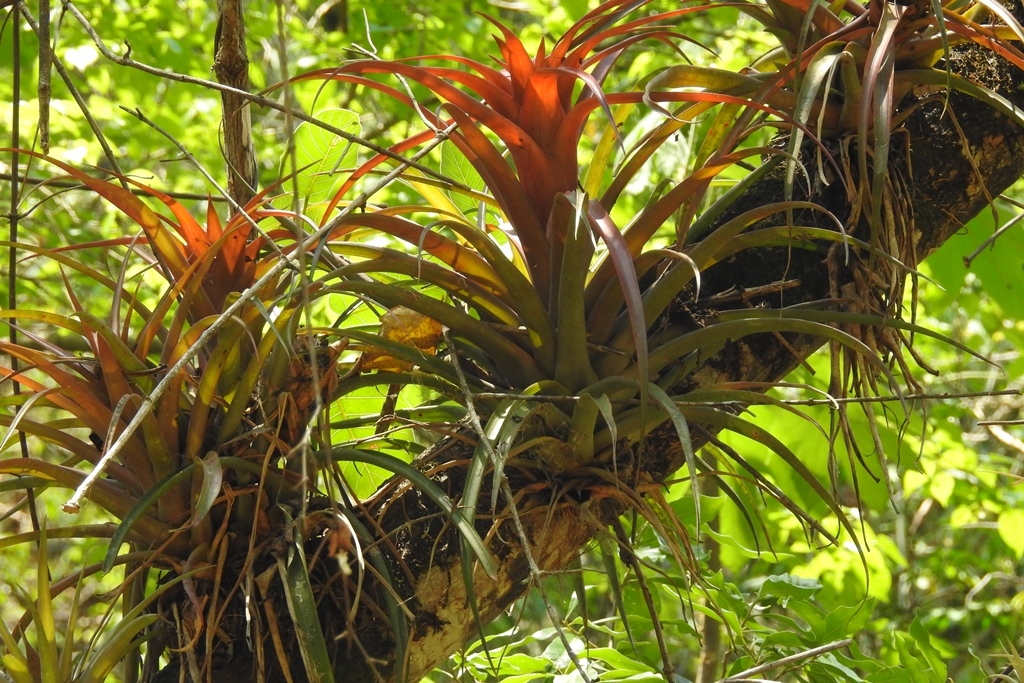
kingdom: Plantae
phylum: Tracheophyta
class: Liliopsida
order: Poales
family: Bromeliaceae
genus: Tillandsia
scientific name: Tillandsia capitata
